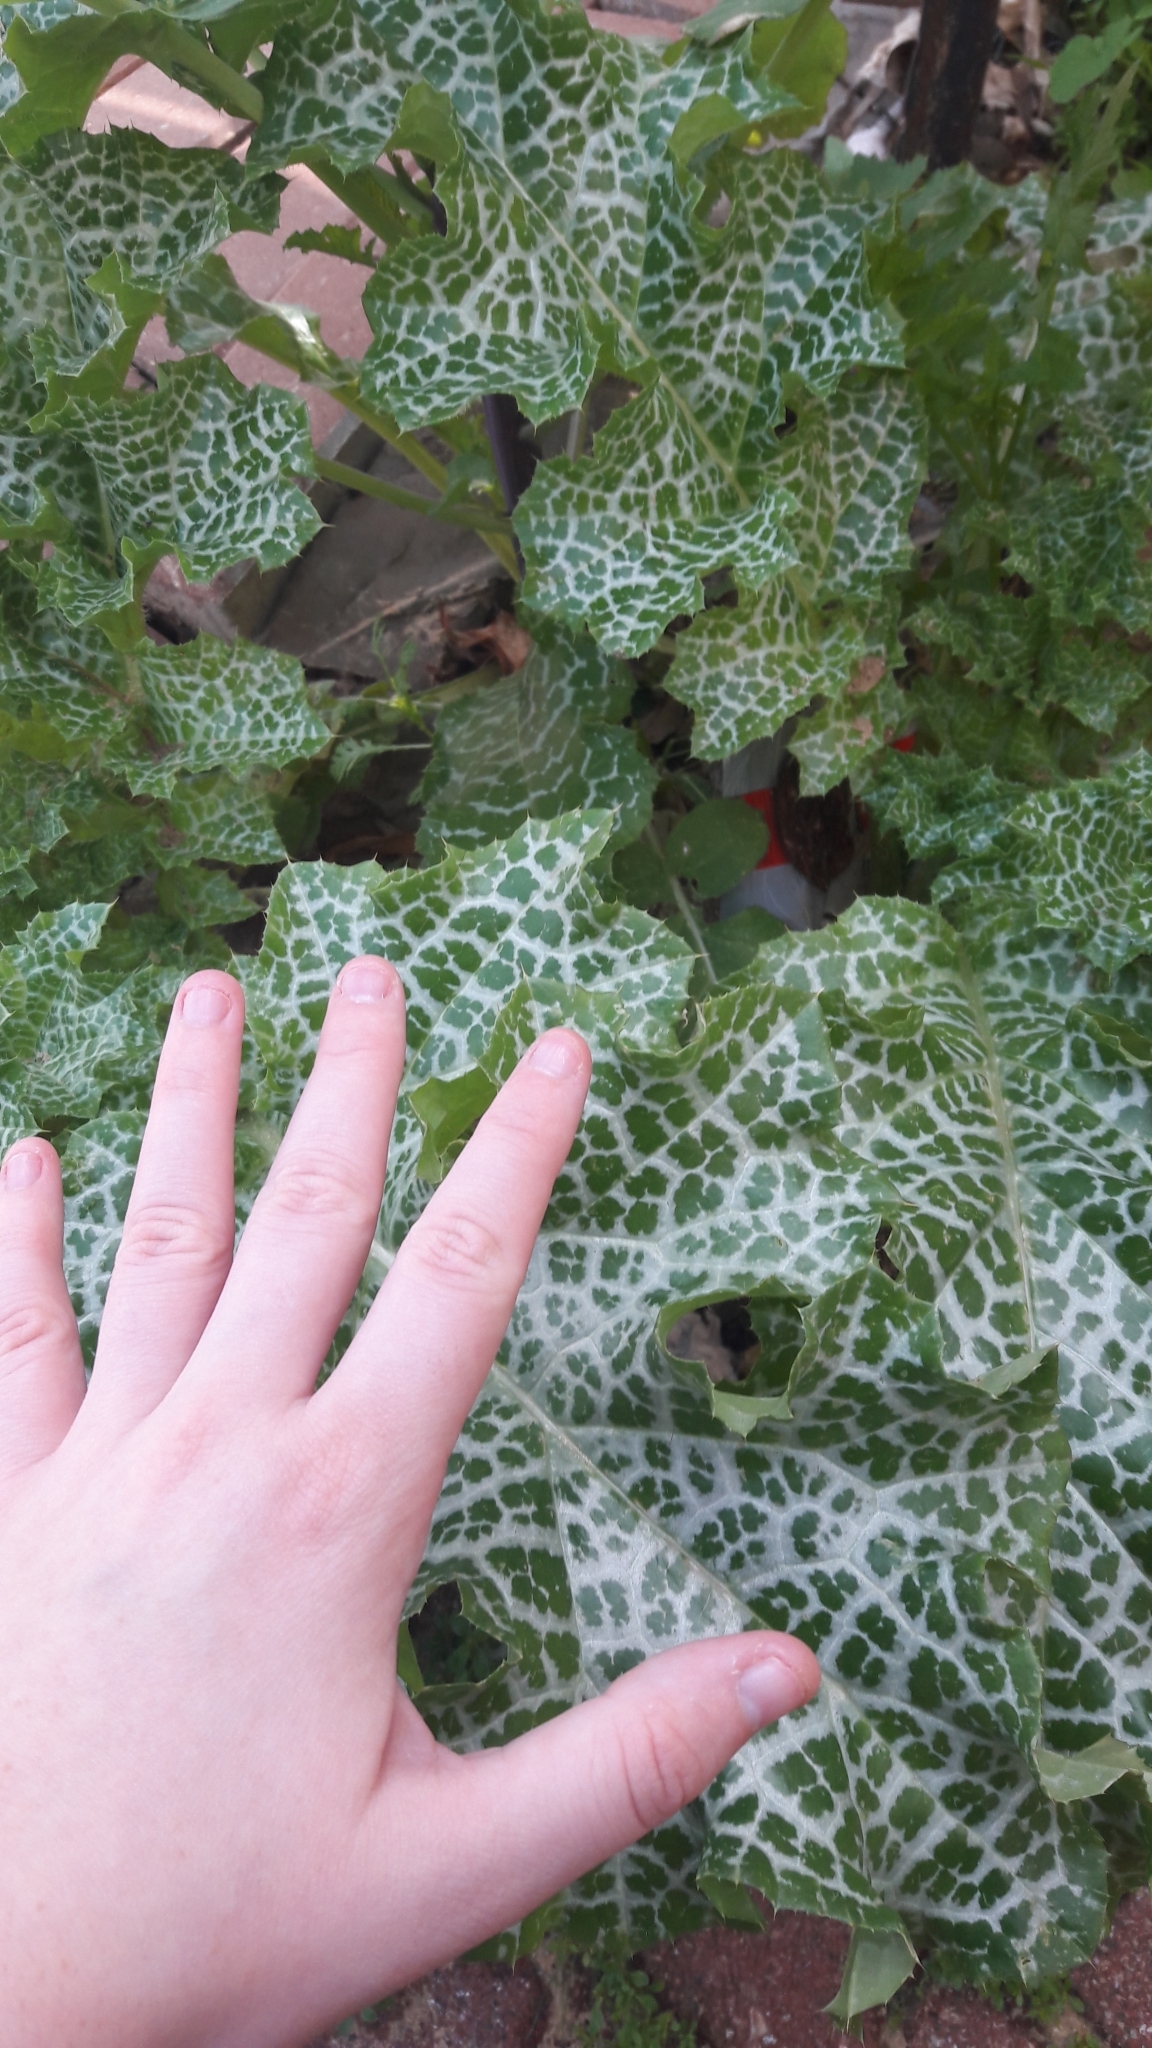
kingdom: Plantae
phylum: Tracheophyta
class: Magnoliopsida
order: Asterales
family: Asteraceae
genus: Silybum
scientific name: Silybum marianum
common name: Milk thistle
